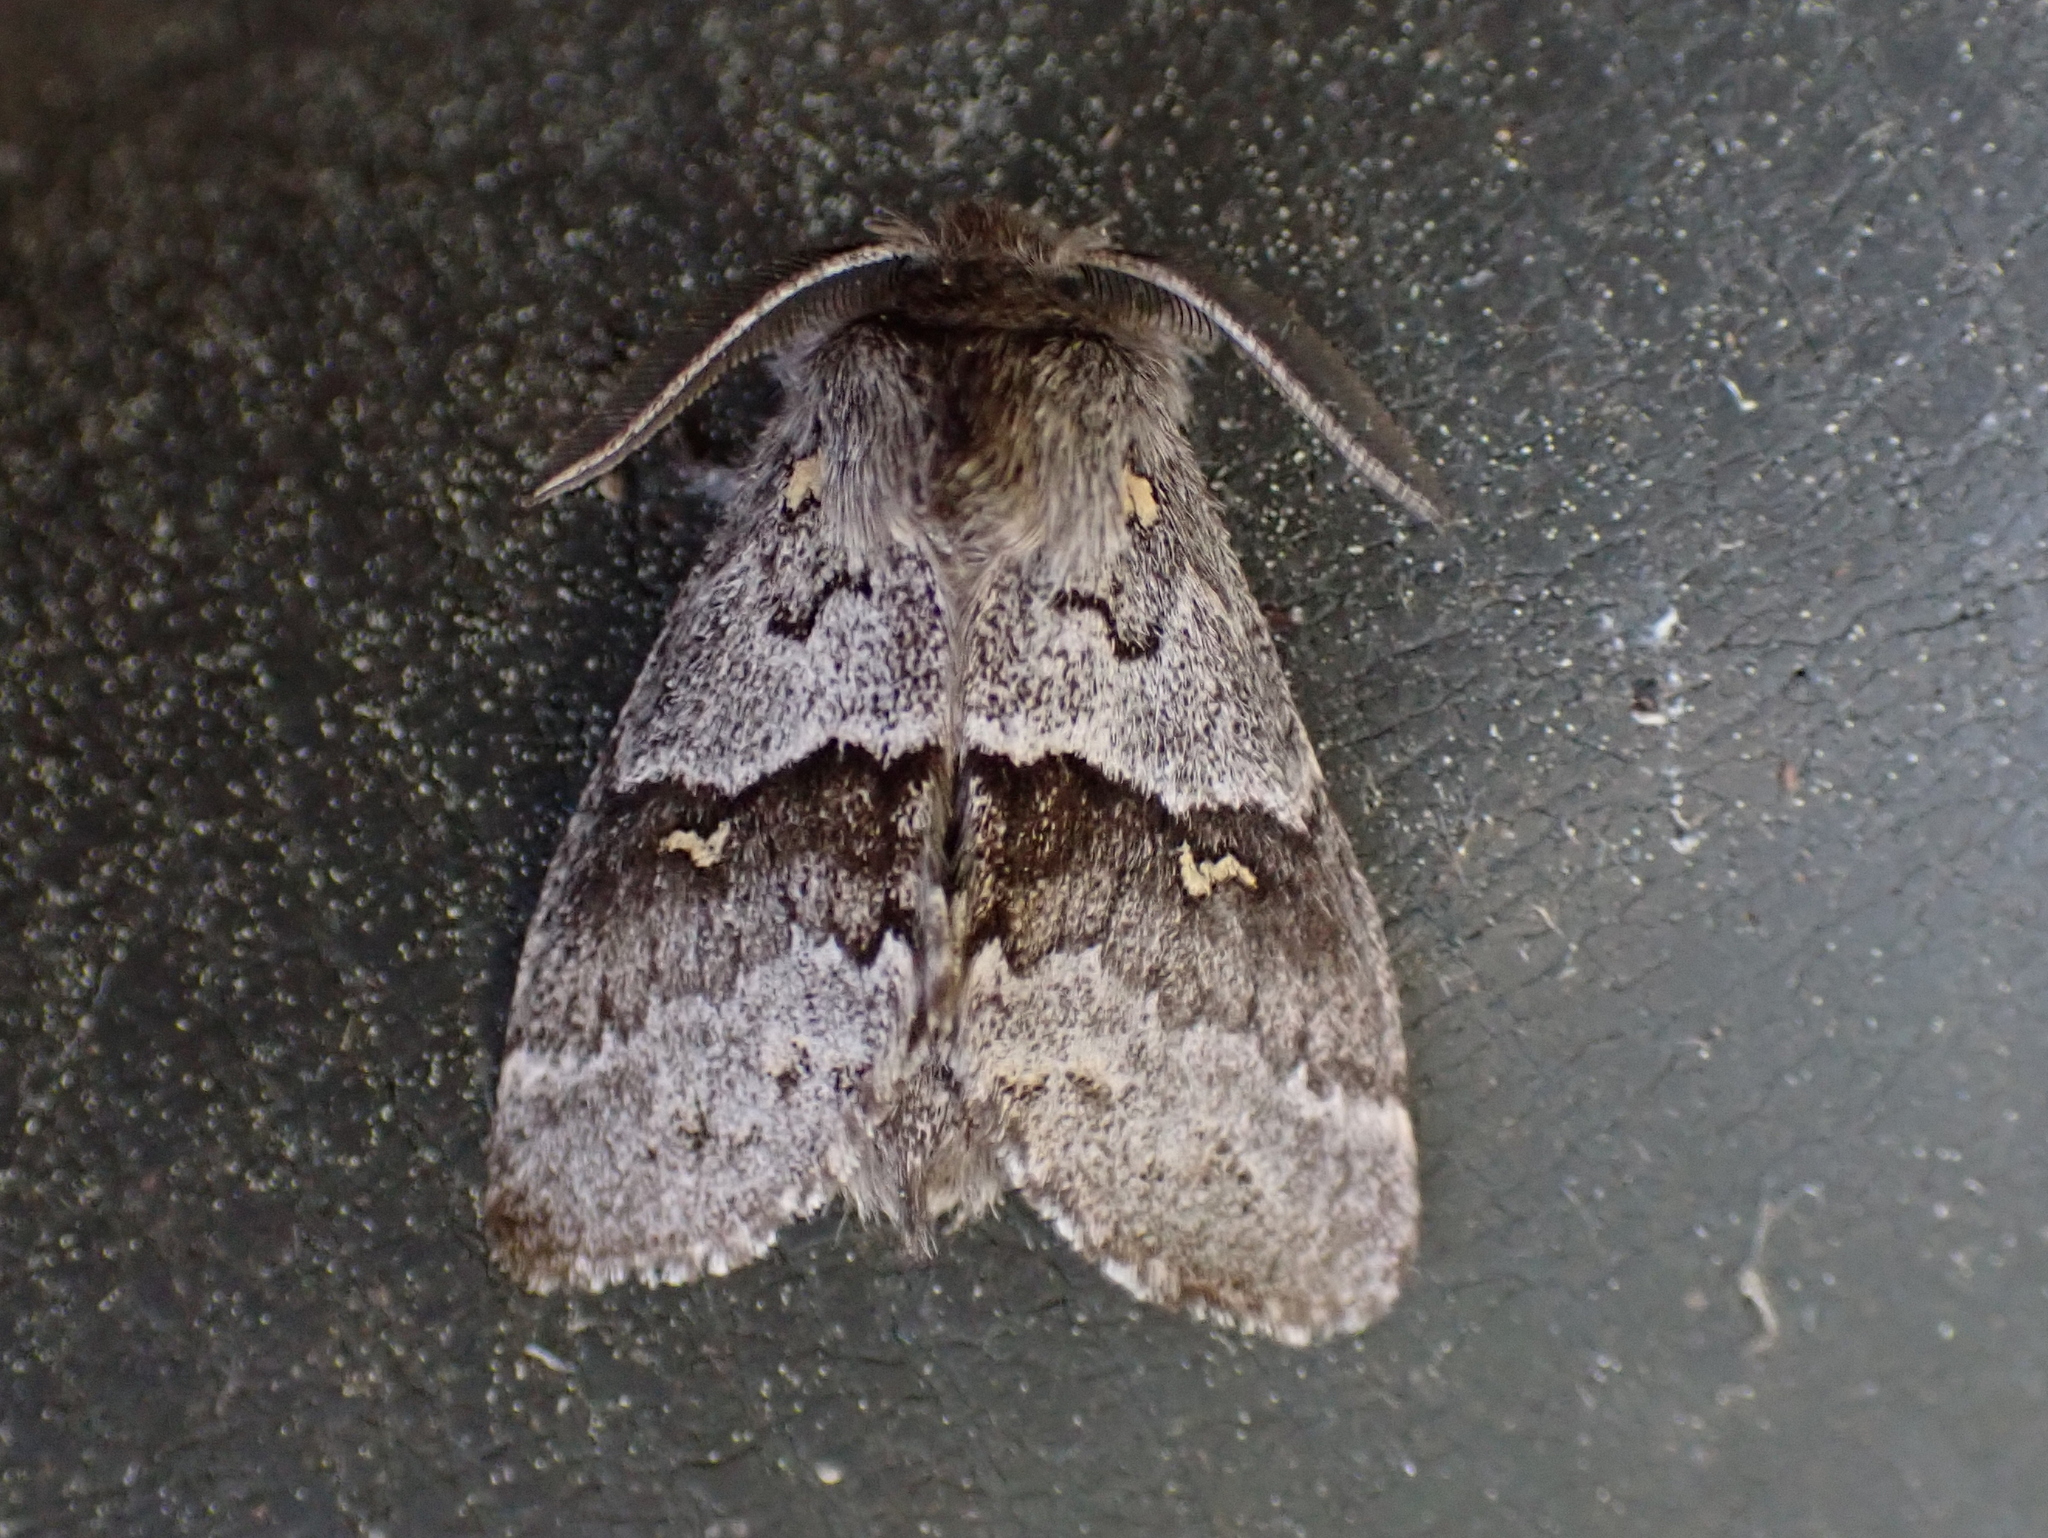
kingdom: Animalia
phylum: Arthropoda
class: Insecta
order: Lepidoptera
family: Notodontidae
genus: Gluphisia
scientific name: Gluphisia avimacula
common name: Four-spotted gluphisia moth
